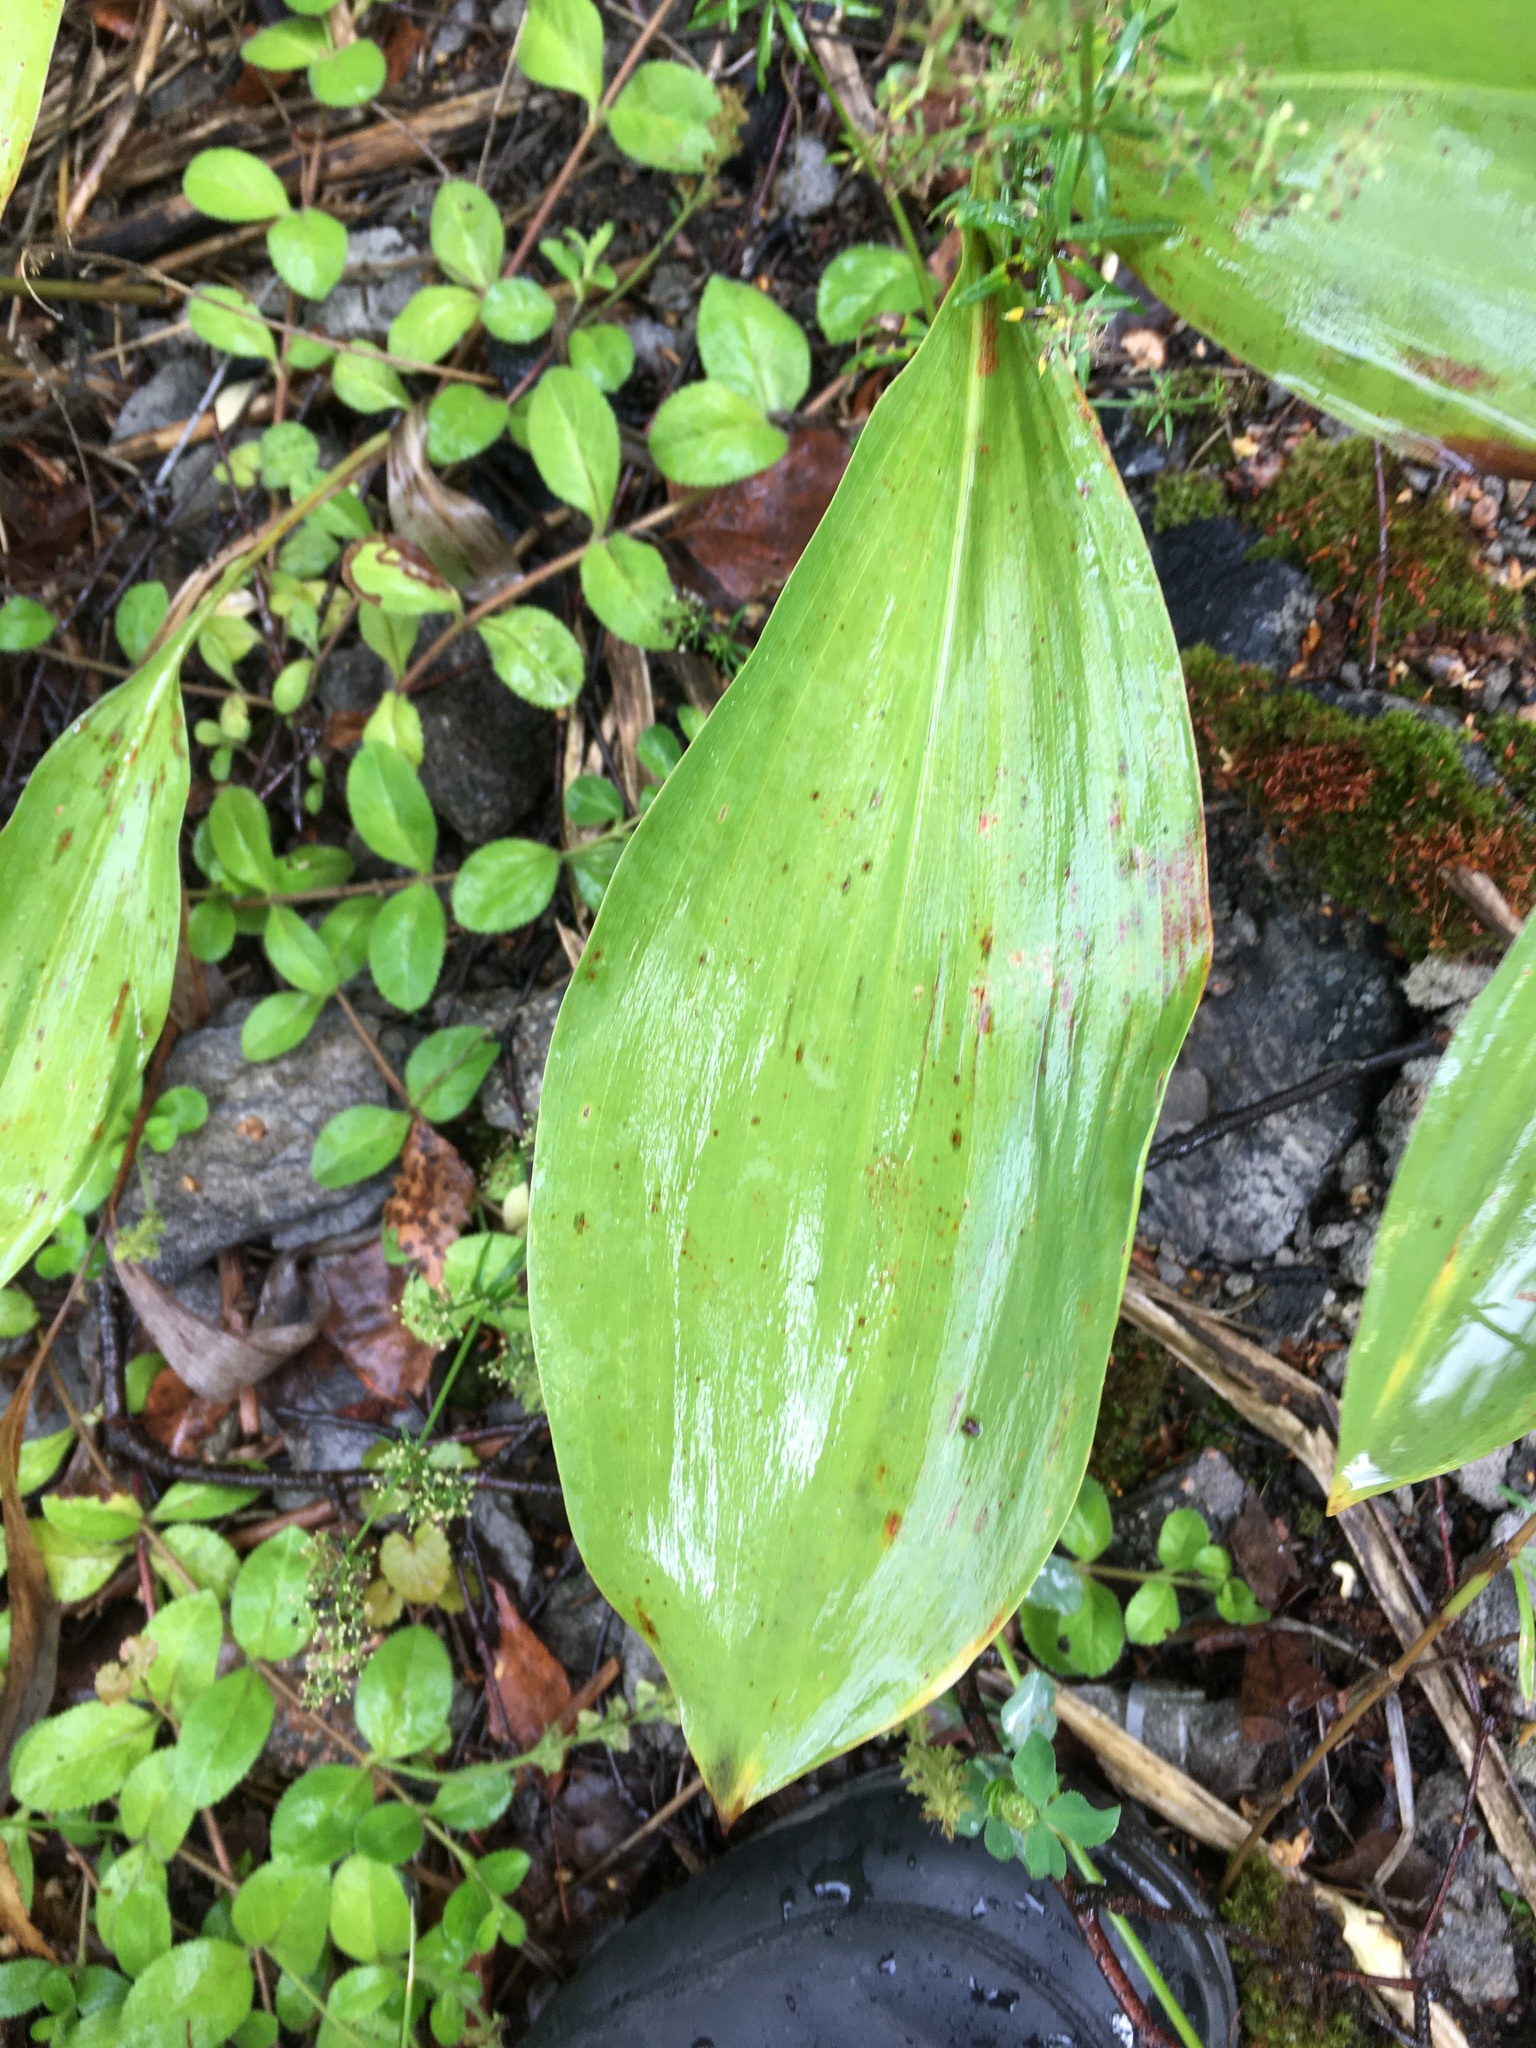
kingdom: Plantae
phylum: Tracheophyta
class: Liliopsida
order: Asparagales
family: Asparagaceae
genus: Convallaria
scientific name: Convallaria majalis
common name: Lily-of-the-valley
